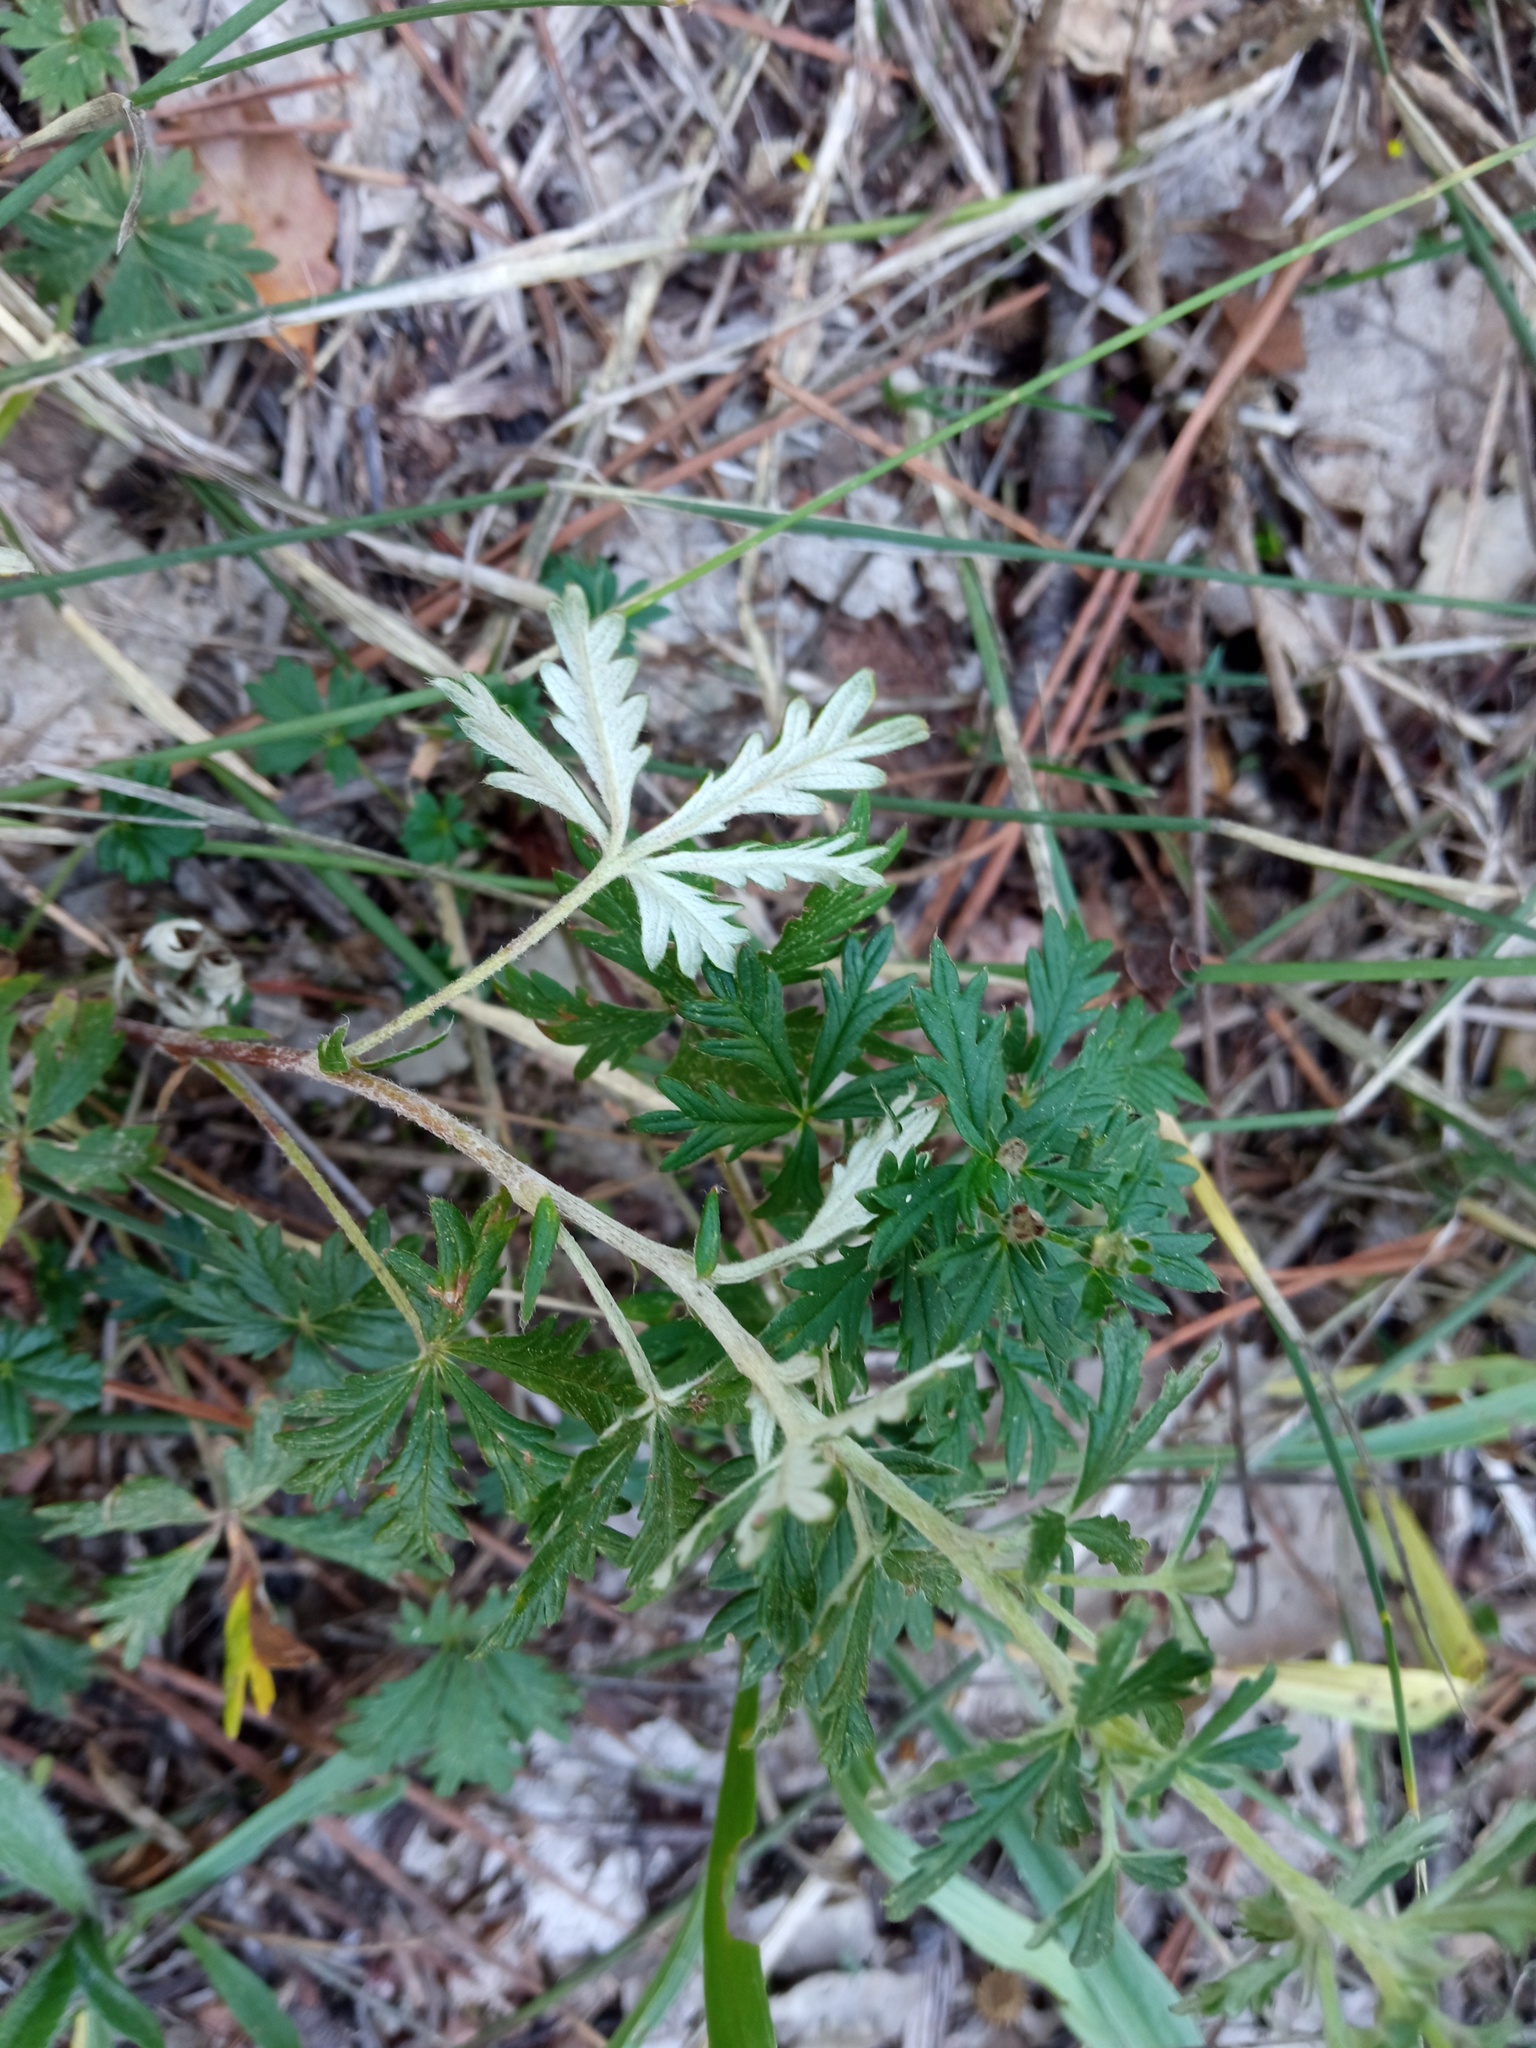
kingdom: Plantae
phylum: Tracheophyta
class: Magnoliopsida
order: Rosales
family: Rosaceae
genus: Potentilla
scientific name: Potentilla argentea
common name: Hoary cinquefoil
